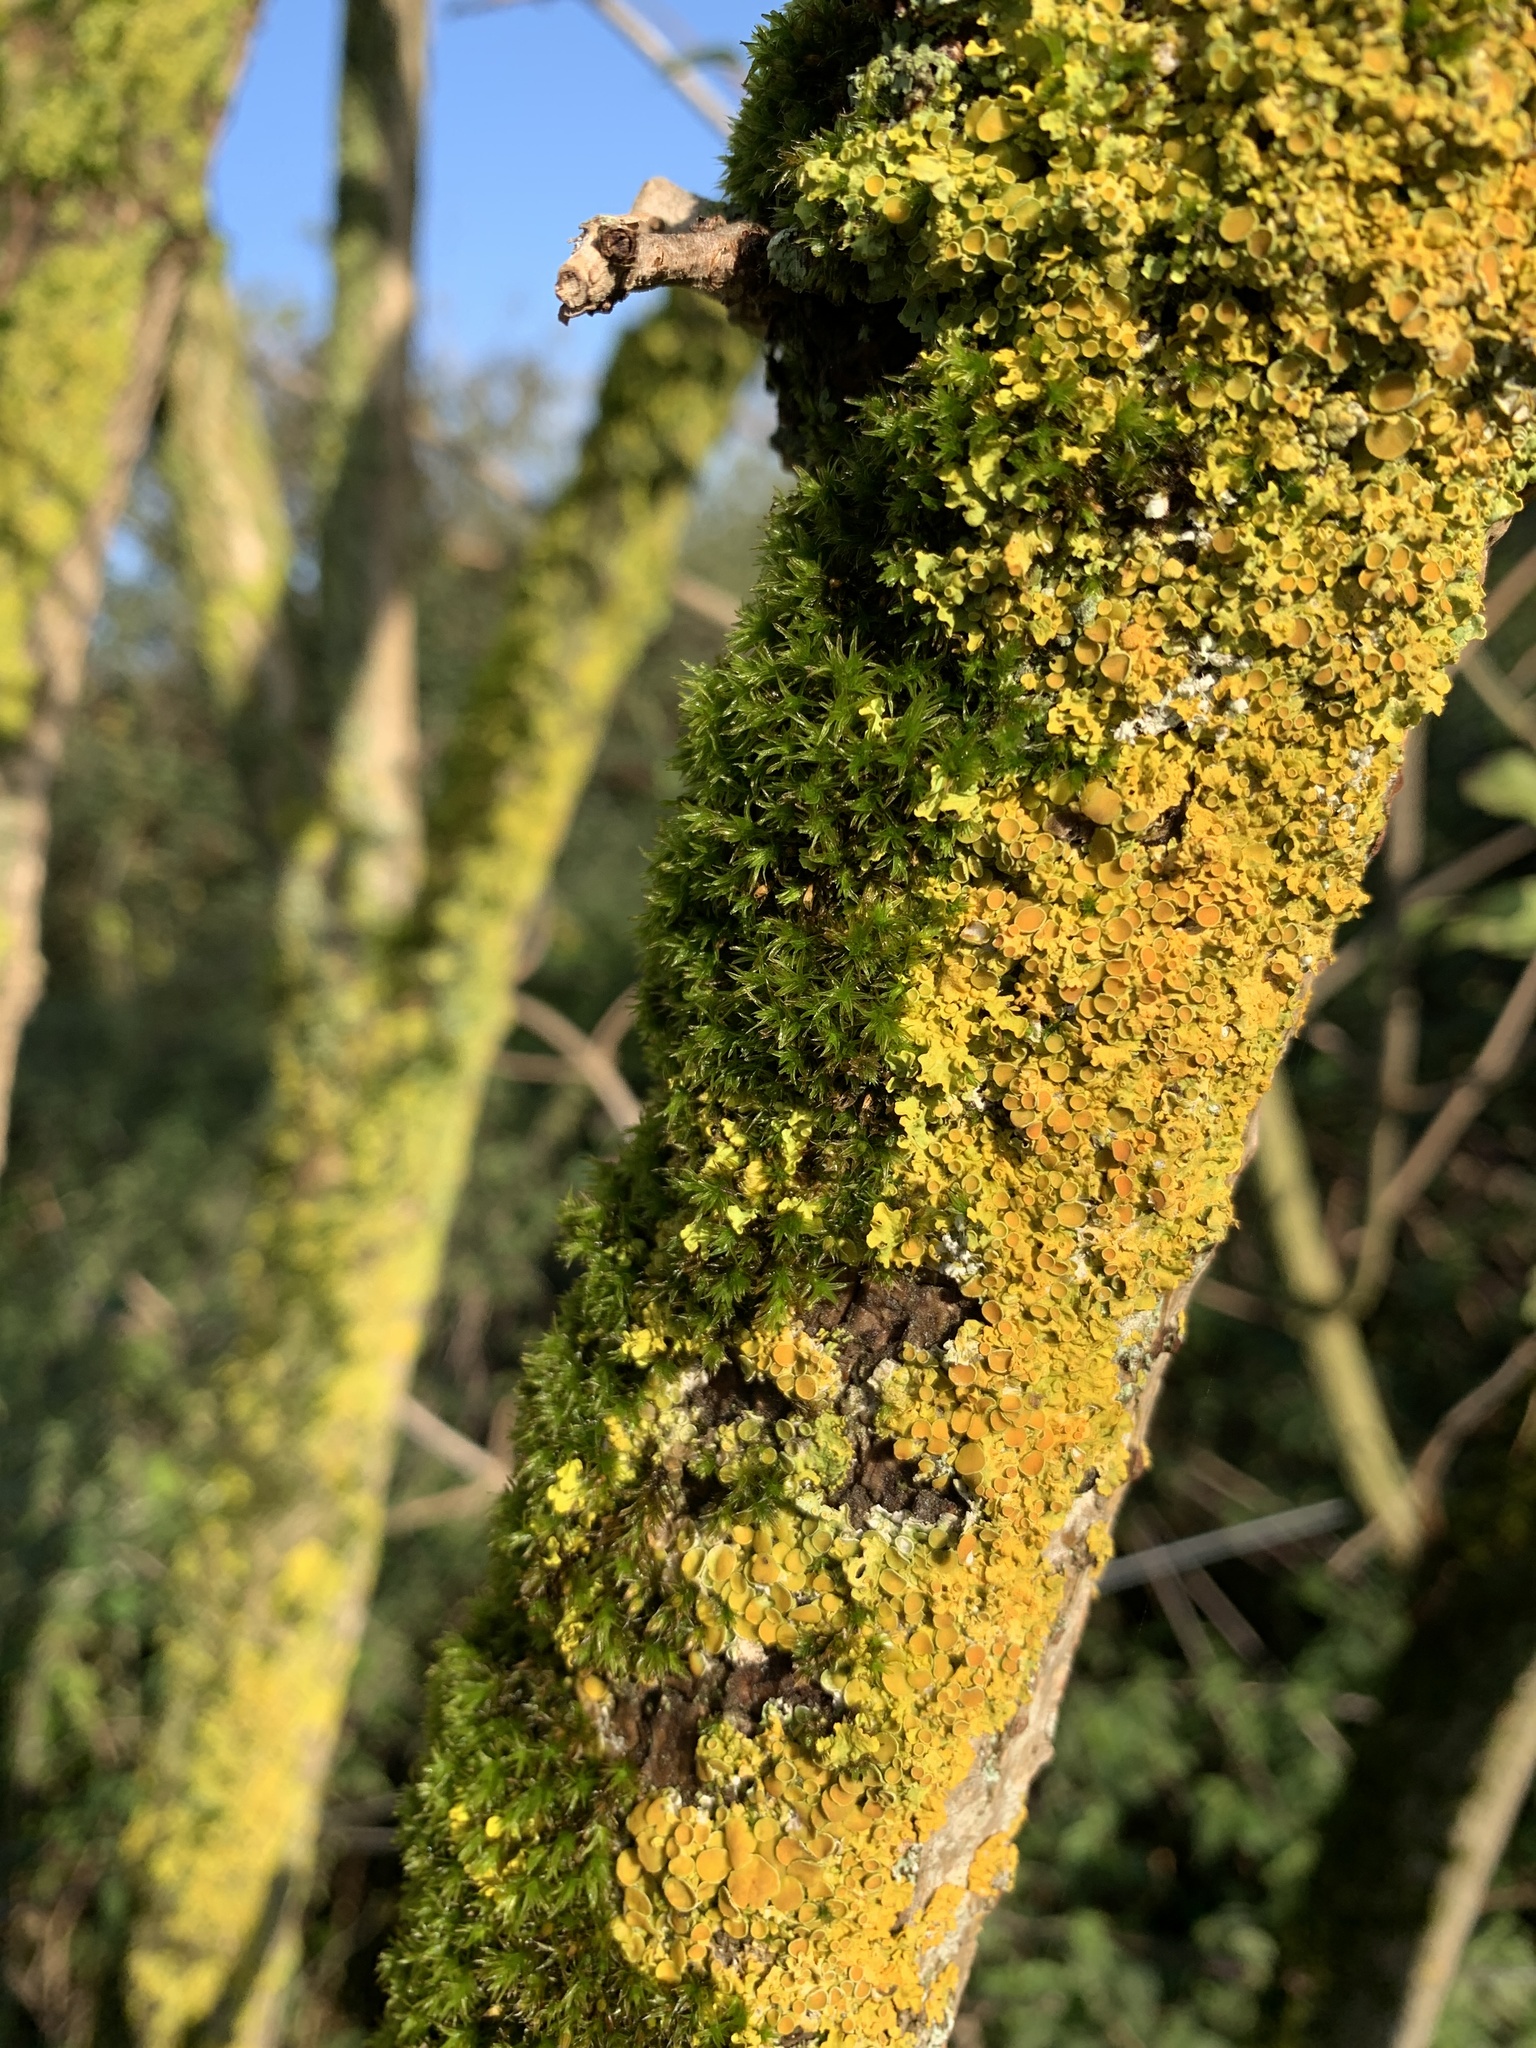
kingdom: Fungi
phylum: Ascomycota
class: Lecanoromycetes
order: Teloschistales
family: Teloschistaceae
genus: Xanthoria
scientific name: Xanthoria parietina
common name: Common orange lichen
